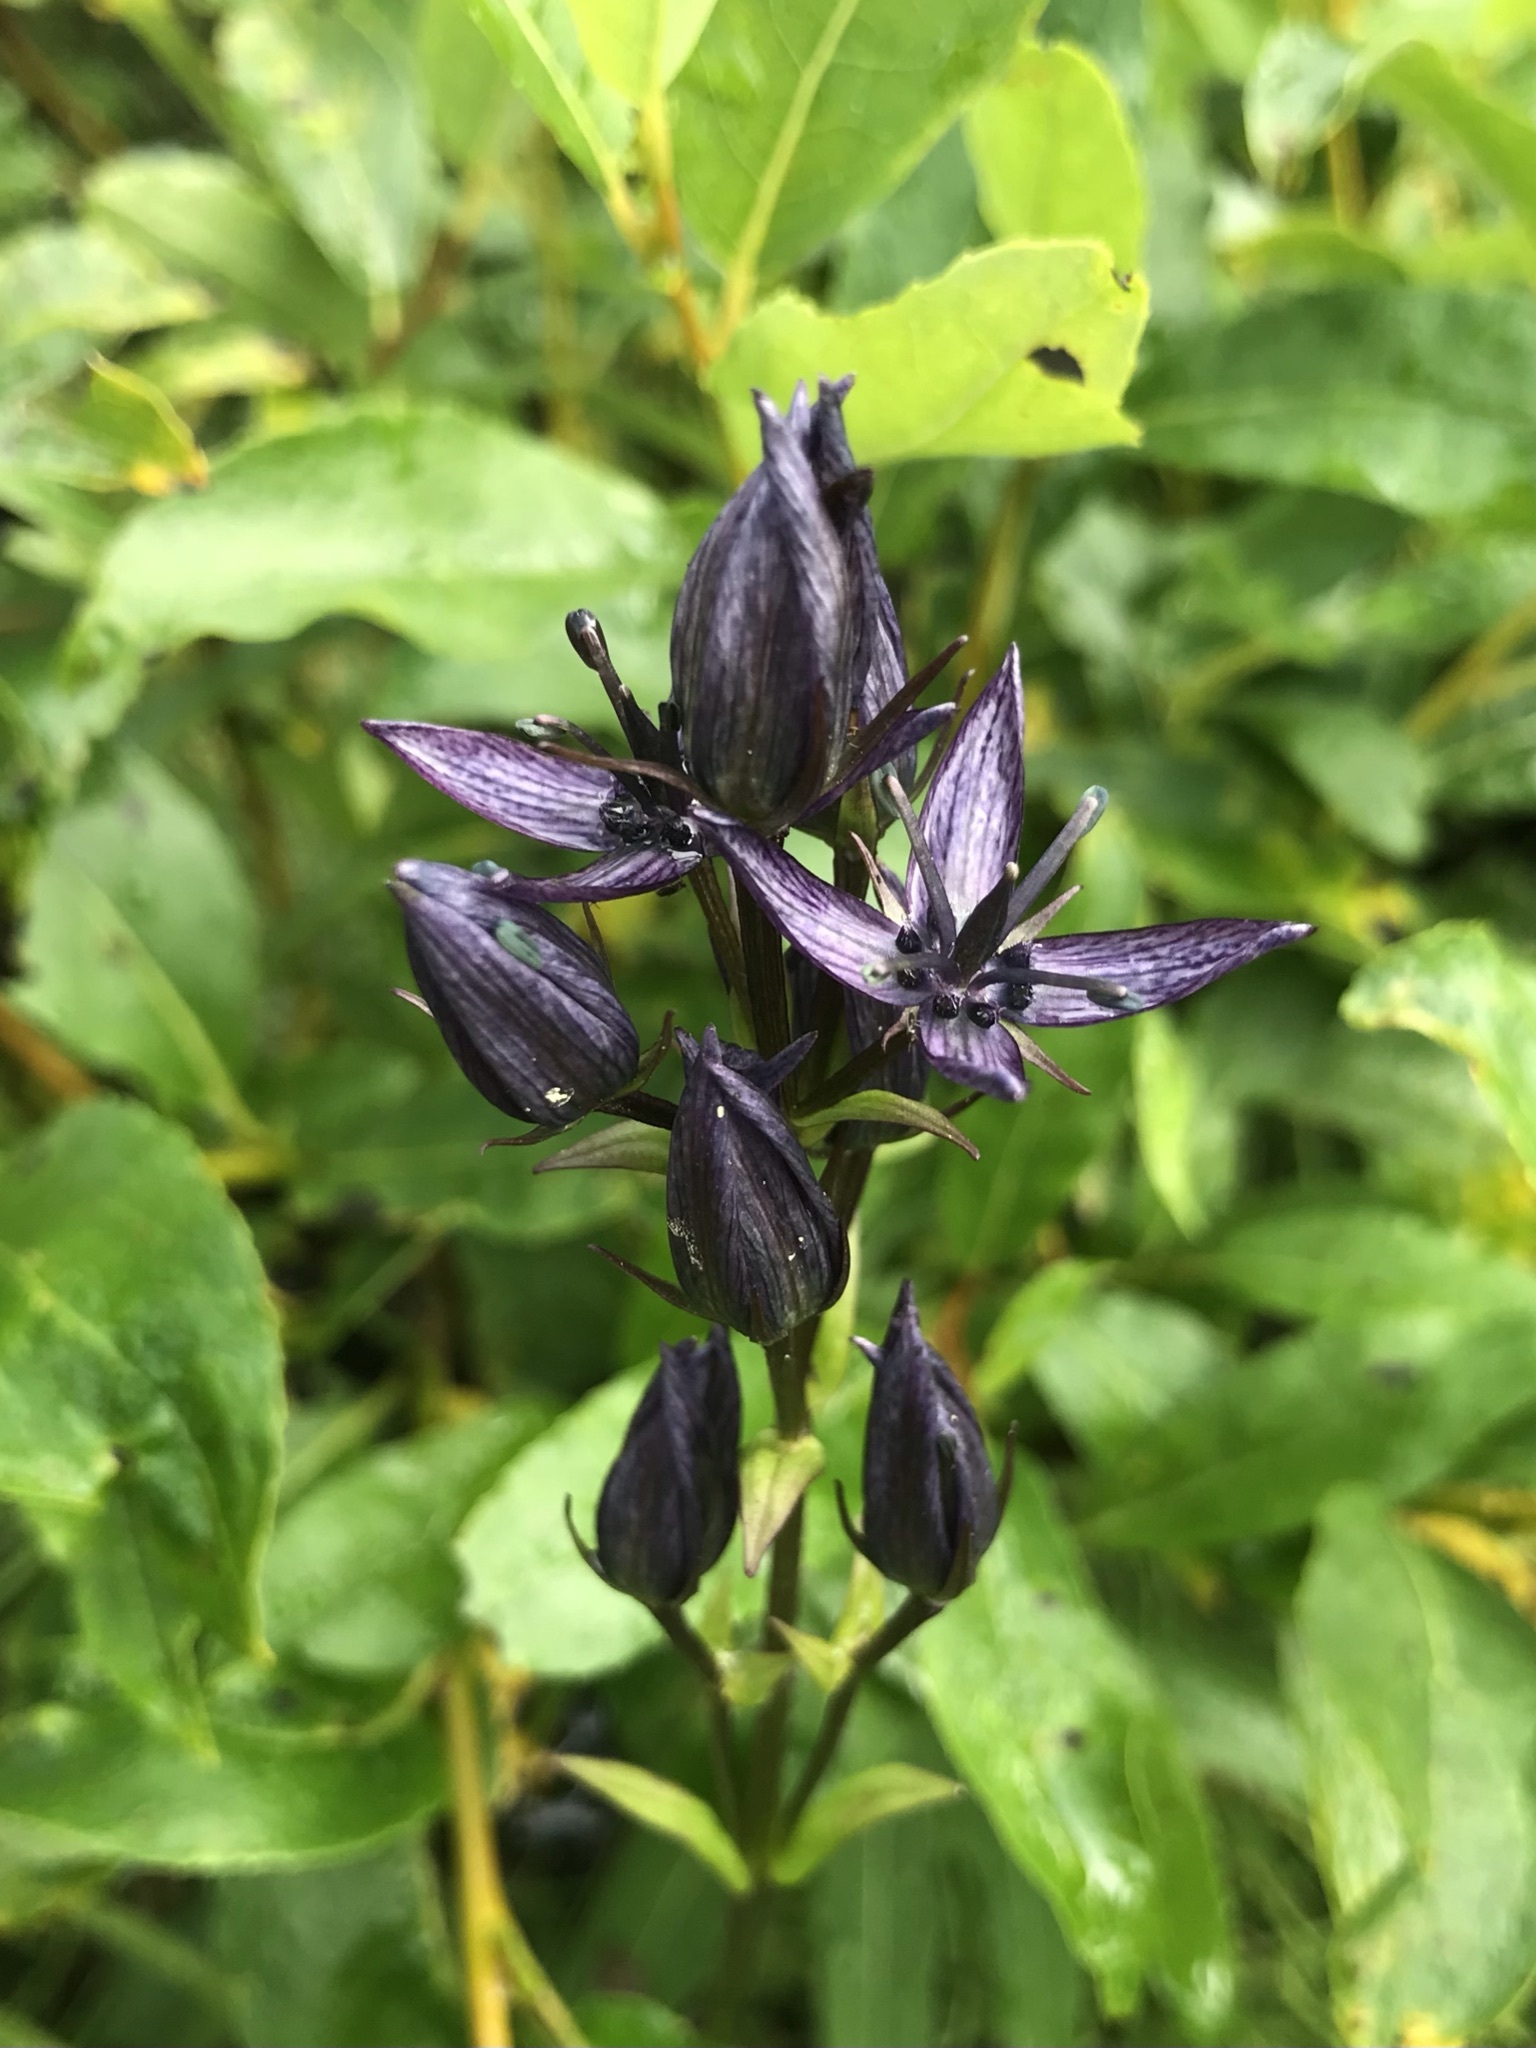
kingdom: Plantae
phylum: Tracheophyta
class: Magnoliopsida
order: Gentianales
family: Gentianaceae
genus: Swertia
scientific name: Swertia perennis
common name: Alpine bog swertia
